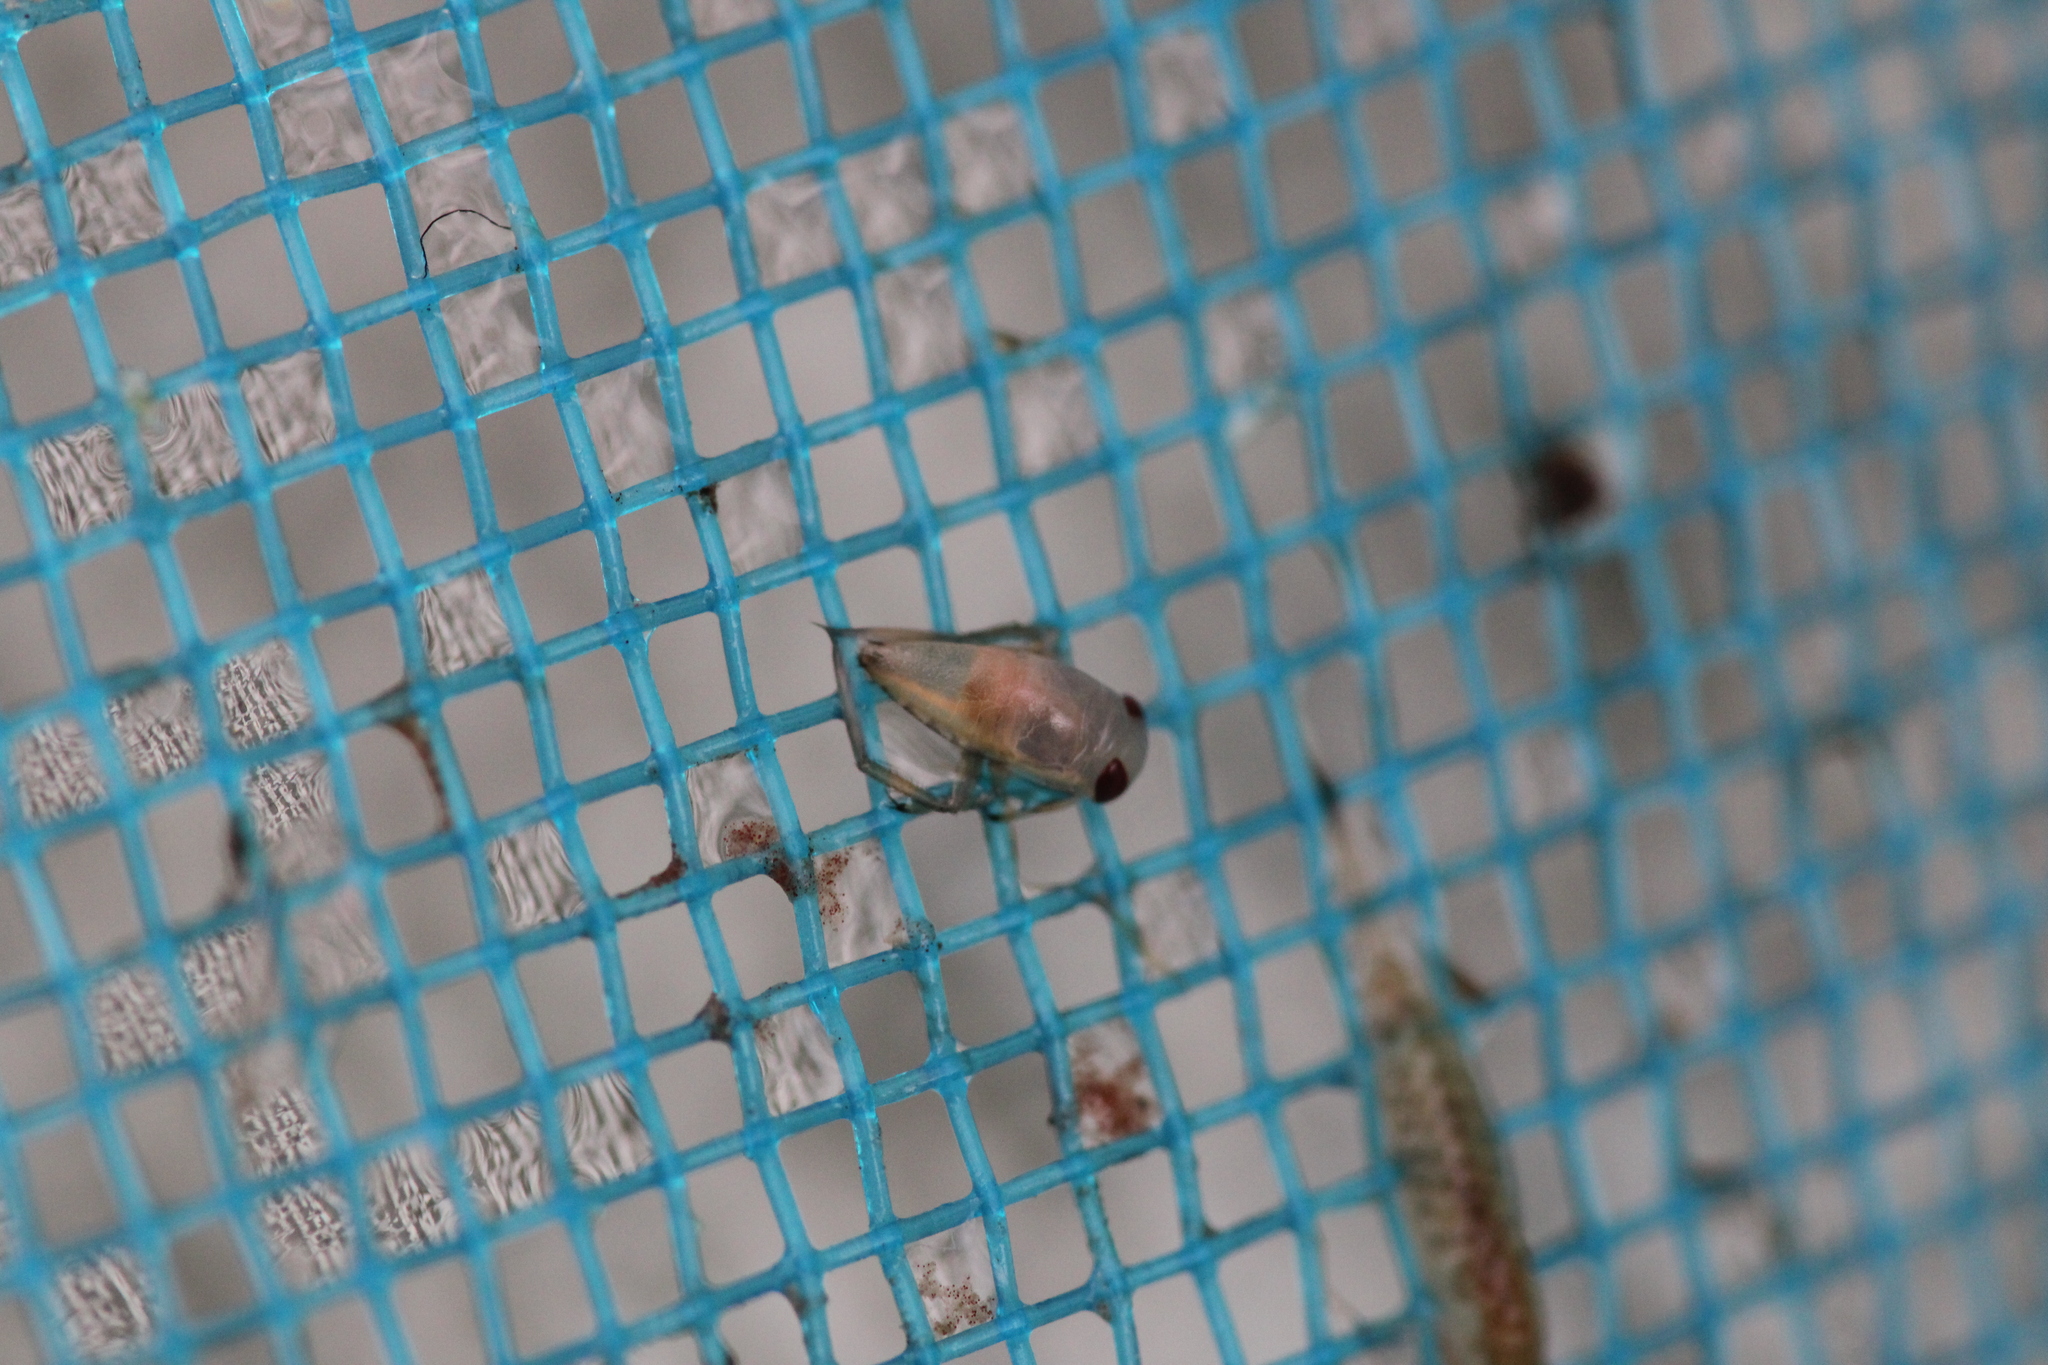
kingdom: Animalia
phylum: Arthropoda
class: Insecta
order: Hemiptera
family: Notonectidae
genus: Notonecta
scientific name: Notonecta
